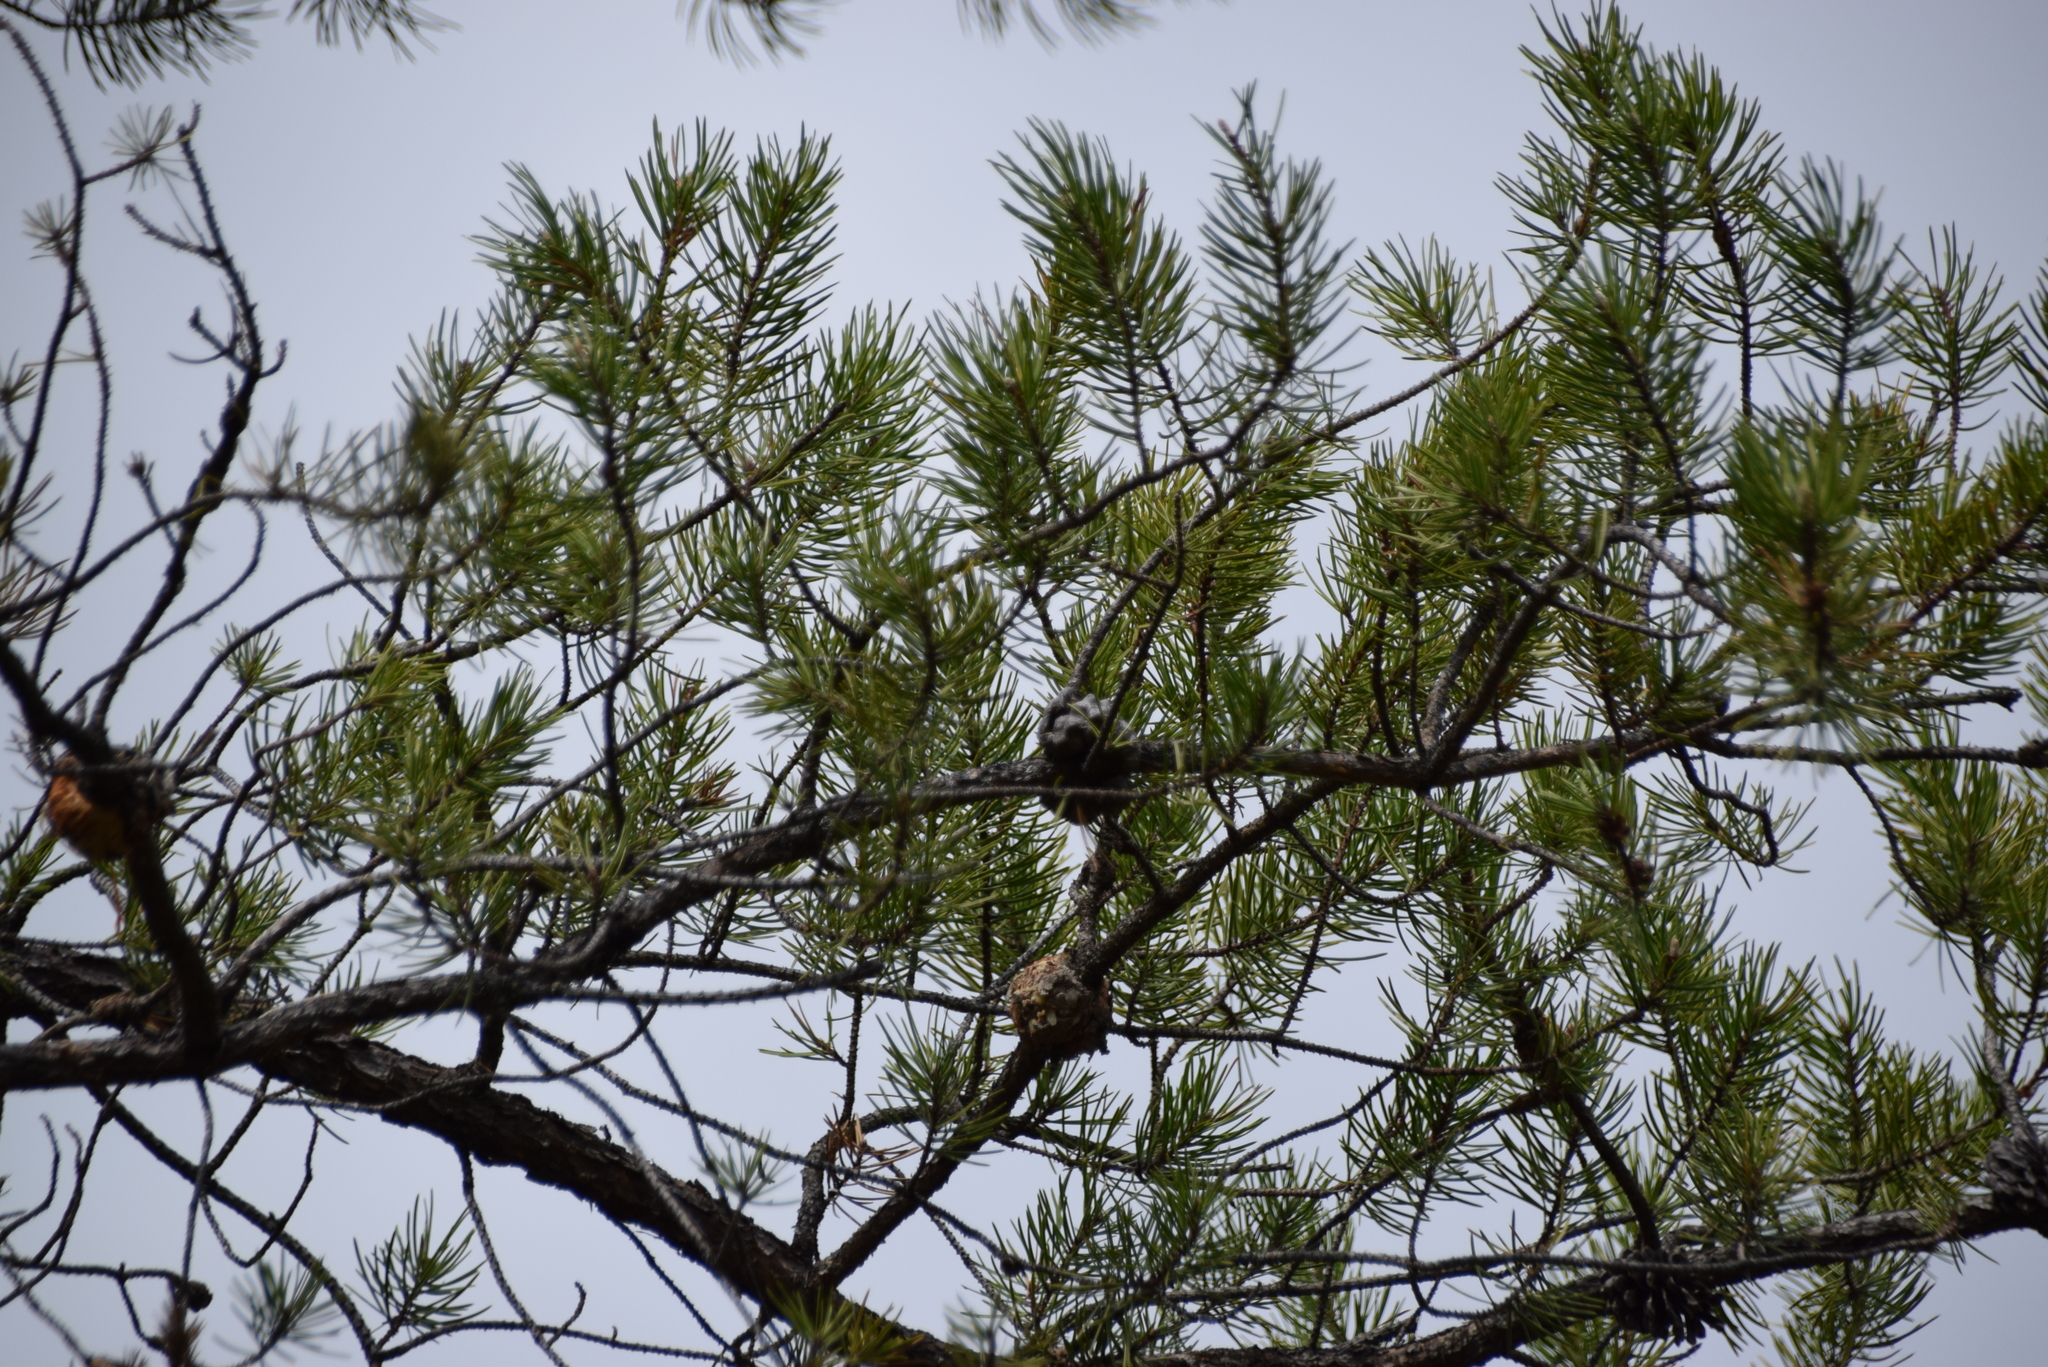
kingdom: Plantae
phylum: Tracheophyta
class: Pinopsida
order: Pinales
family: Pinaceae
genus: Pinus
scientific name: Pinus banksiana
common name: Jack pine
